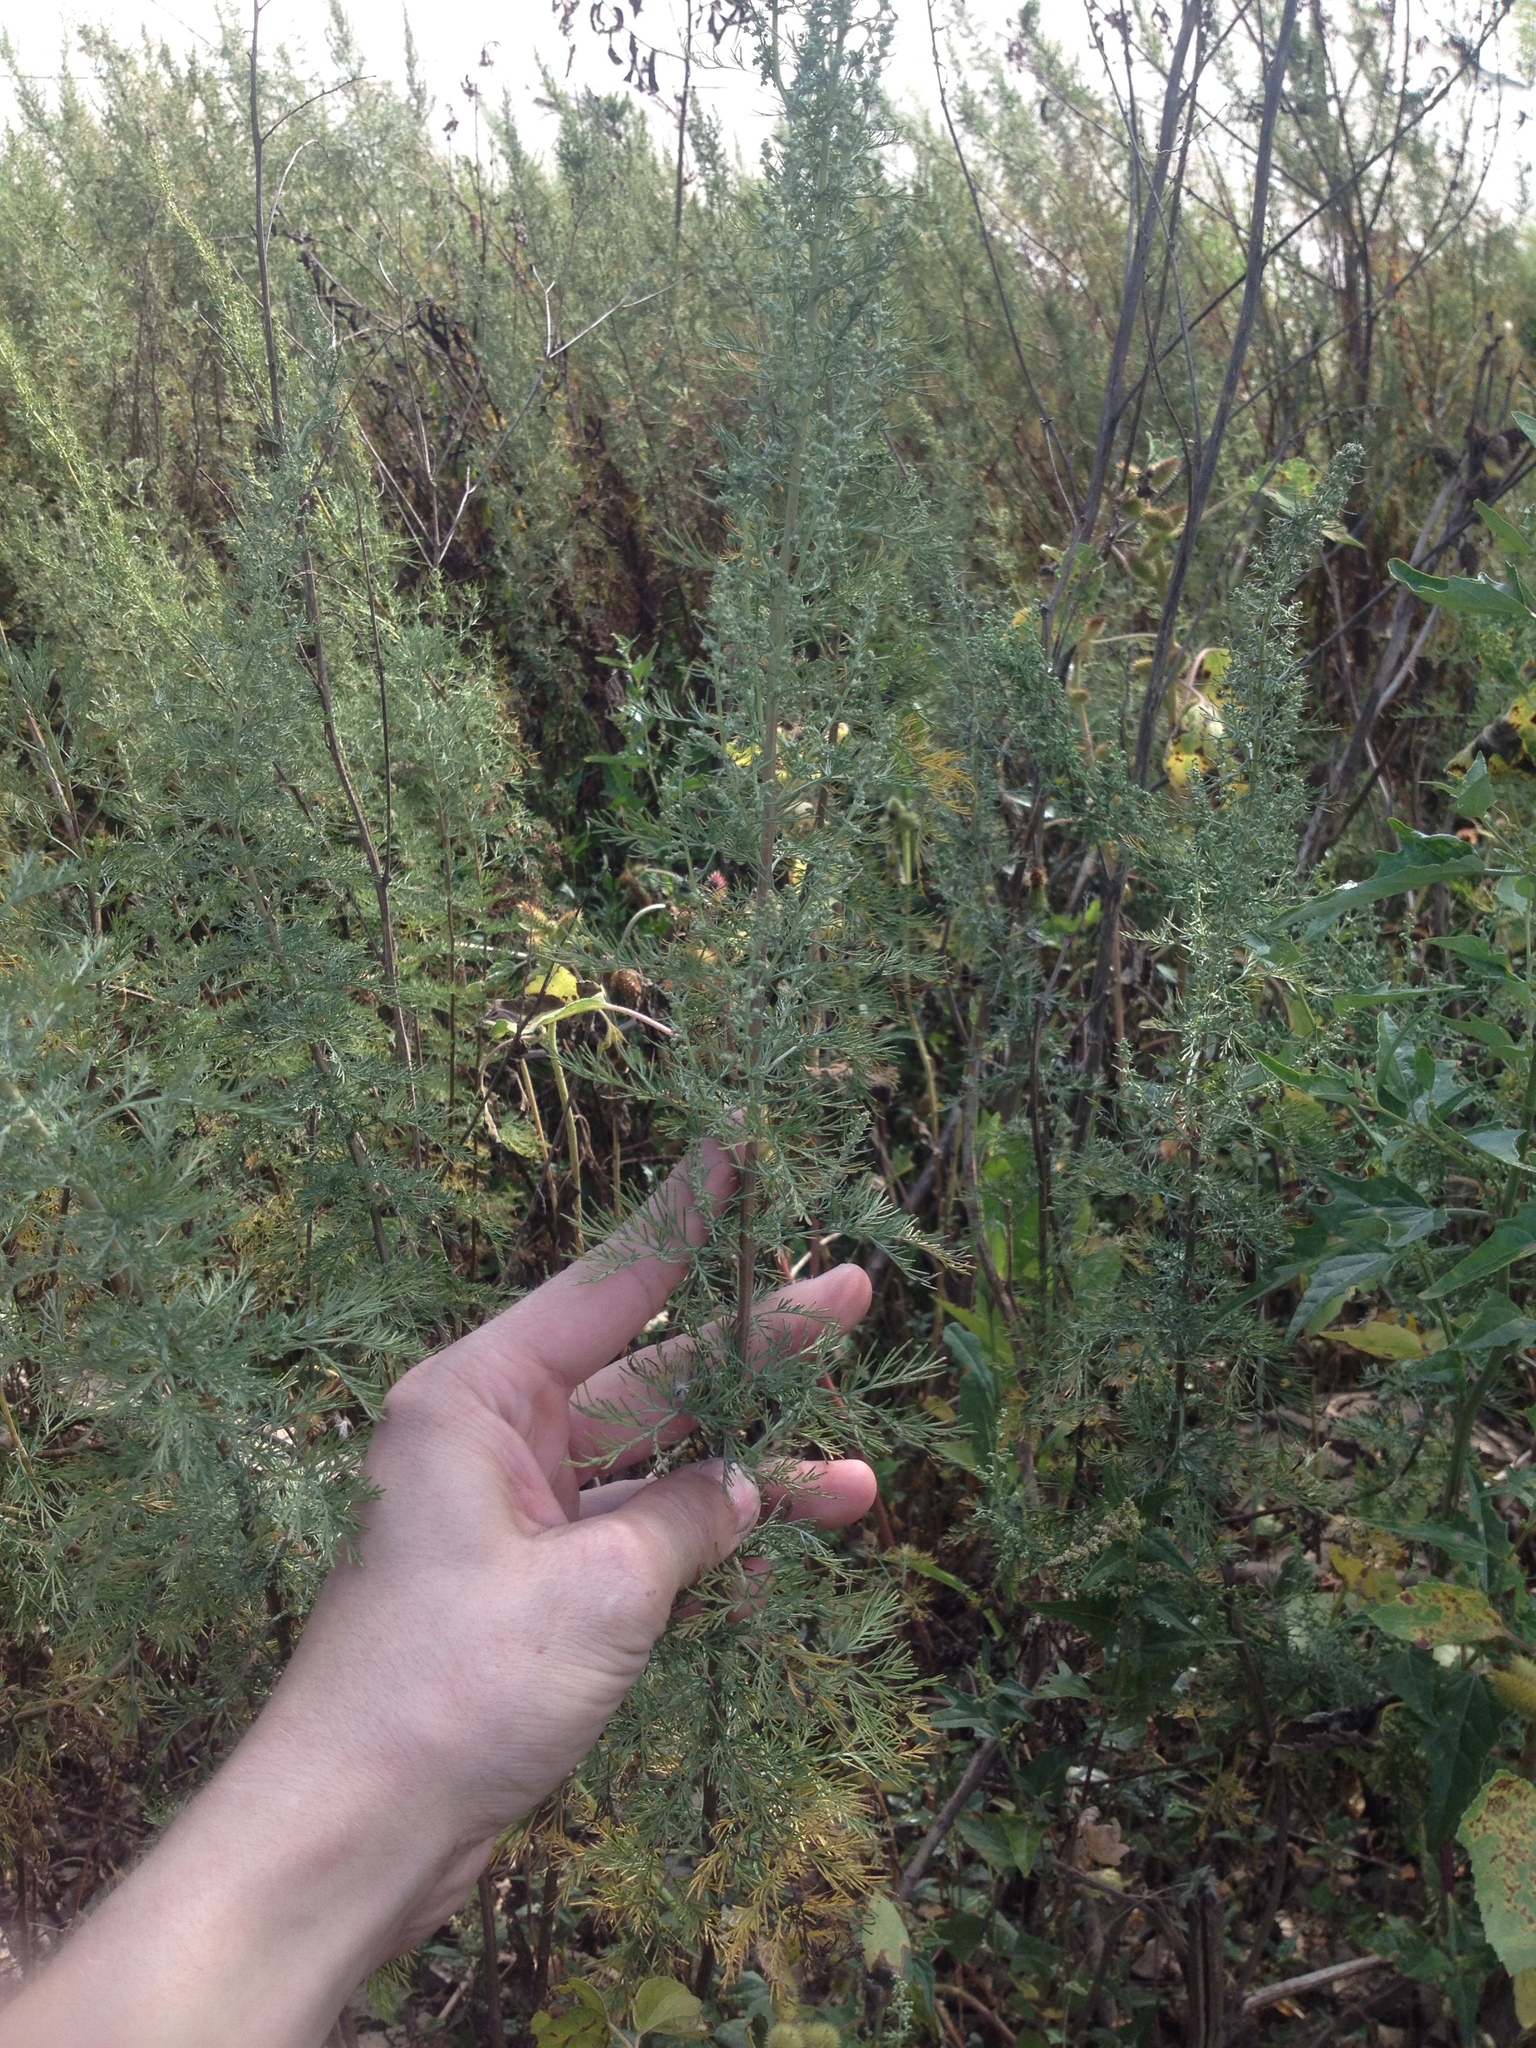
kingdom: Plantae
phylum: Tracheophyta
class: Magnoliopsida
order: Asterales
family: Asteraceae
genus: Artemisia
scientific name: Artemisia abrotanum
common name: Southernwood
